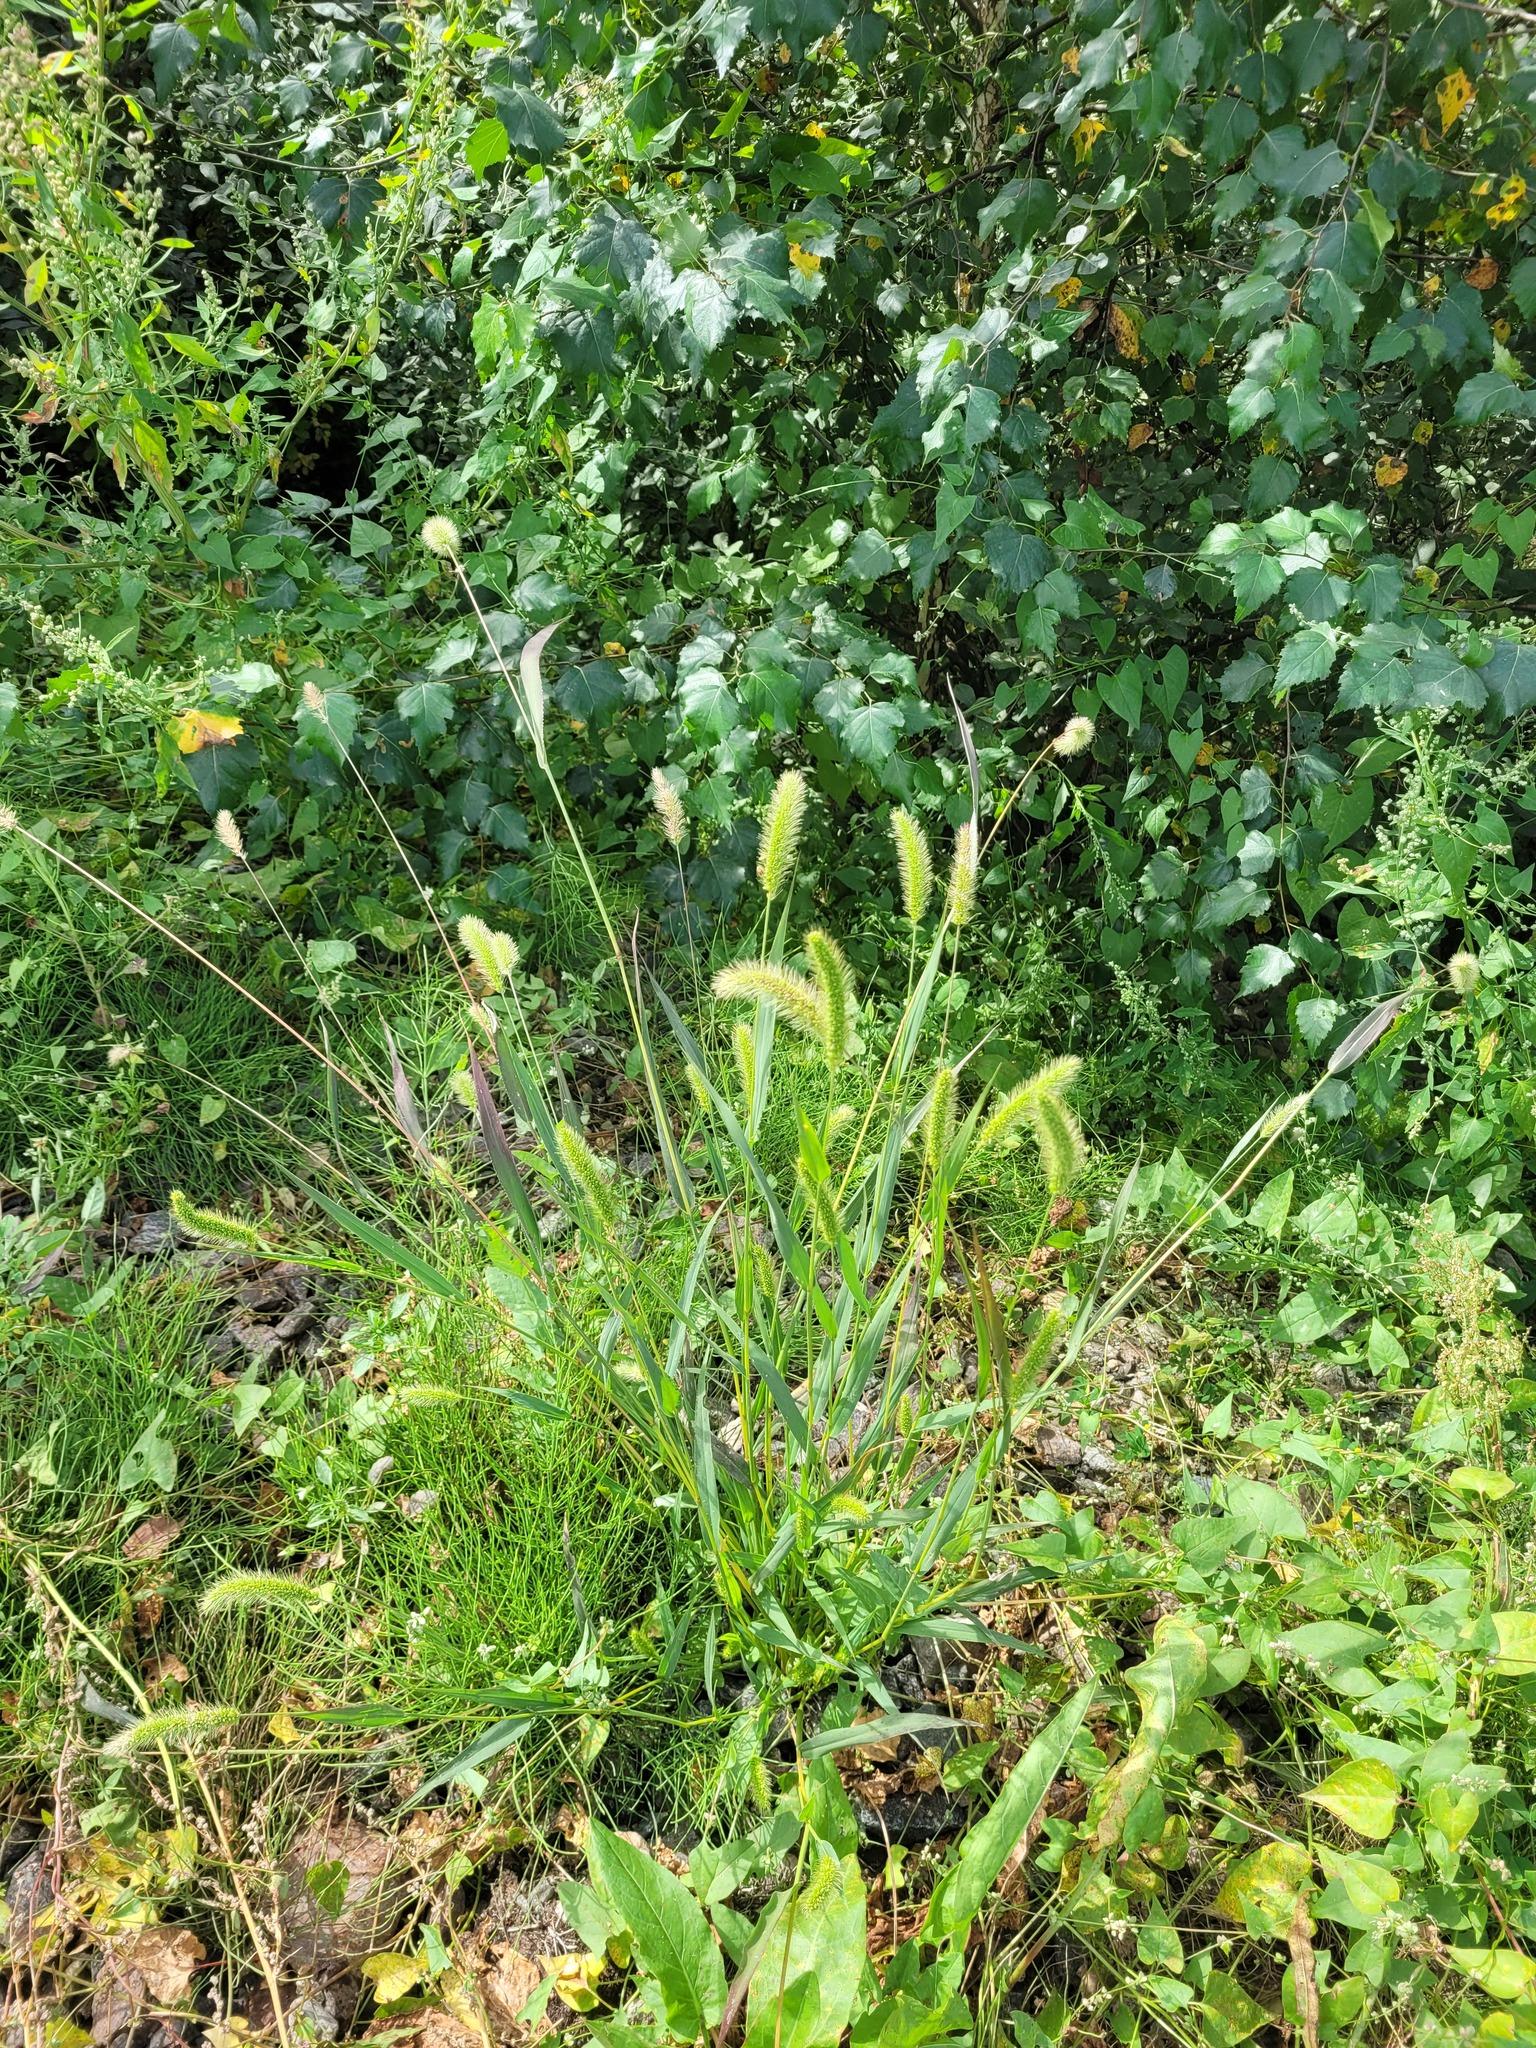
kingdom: Plantae
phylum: Tracheophyta
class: Liliopsida
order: Poales
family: Poaceae
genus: Setaria
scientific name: Setaria viridis
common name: Green bristlegrass
